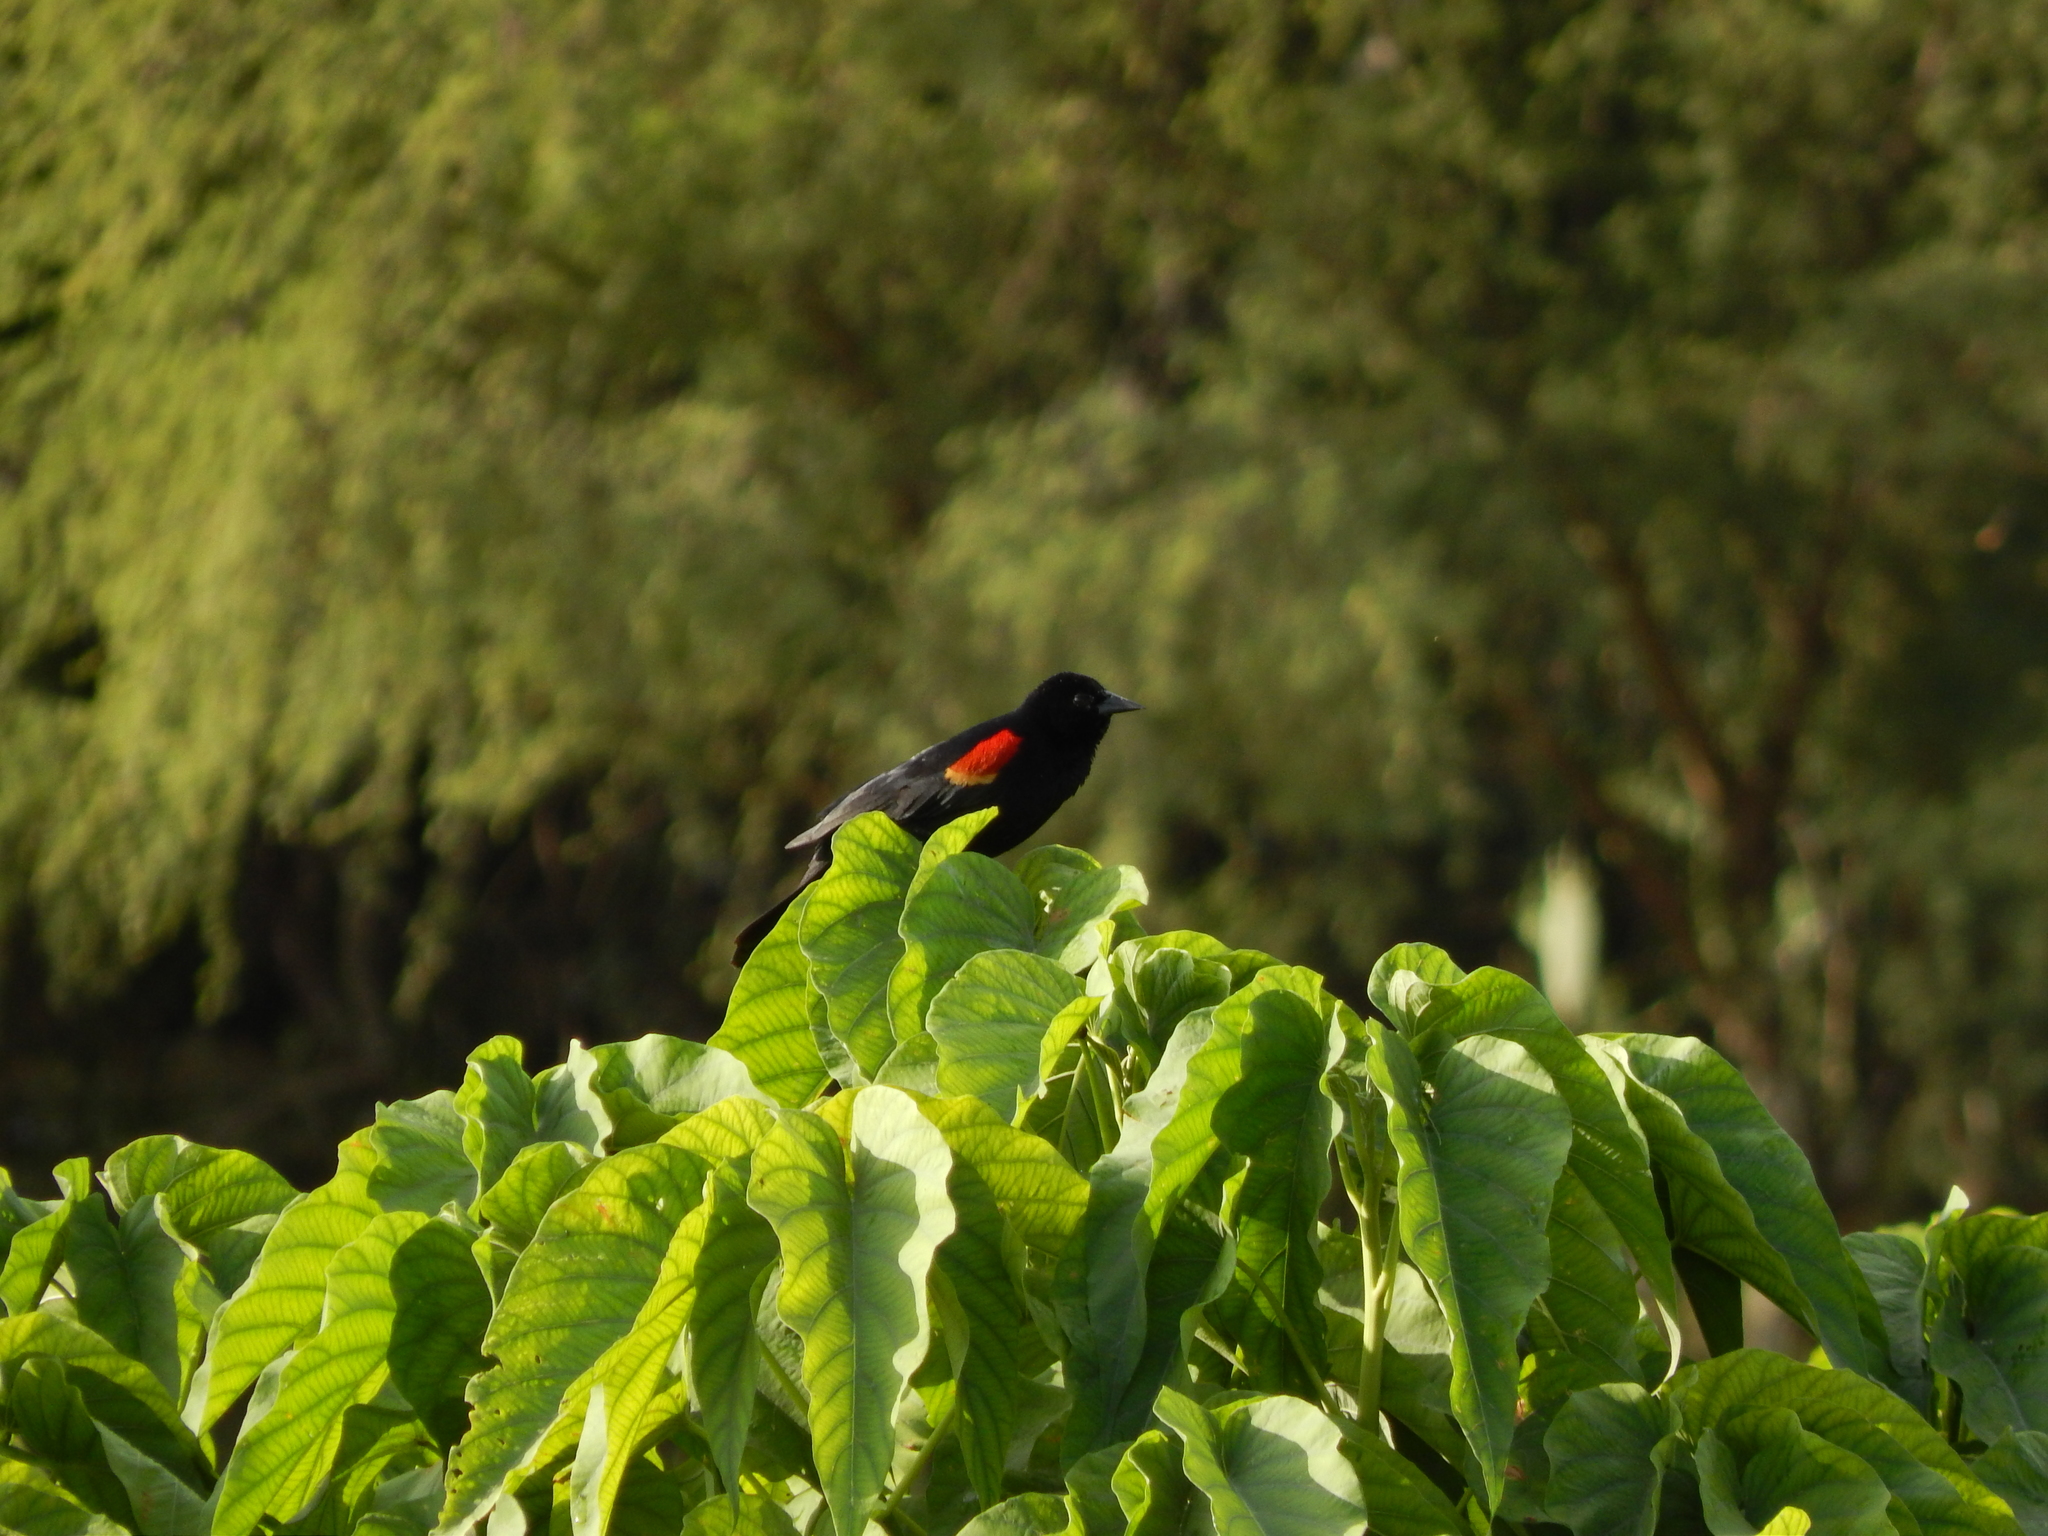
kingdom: Animalia
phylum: Chordata
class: Aves
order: Passeriformes
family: Icteridae
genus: Agelaius
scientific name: Agelaius phoeniceus
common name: Red-winged blackbird
